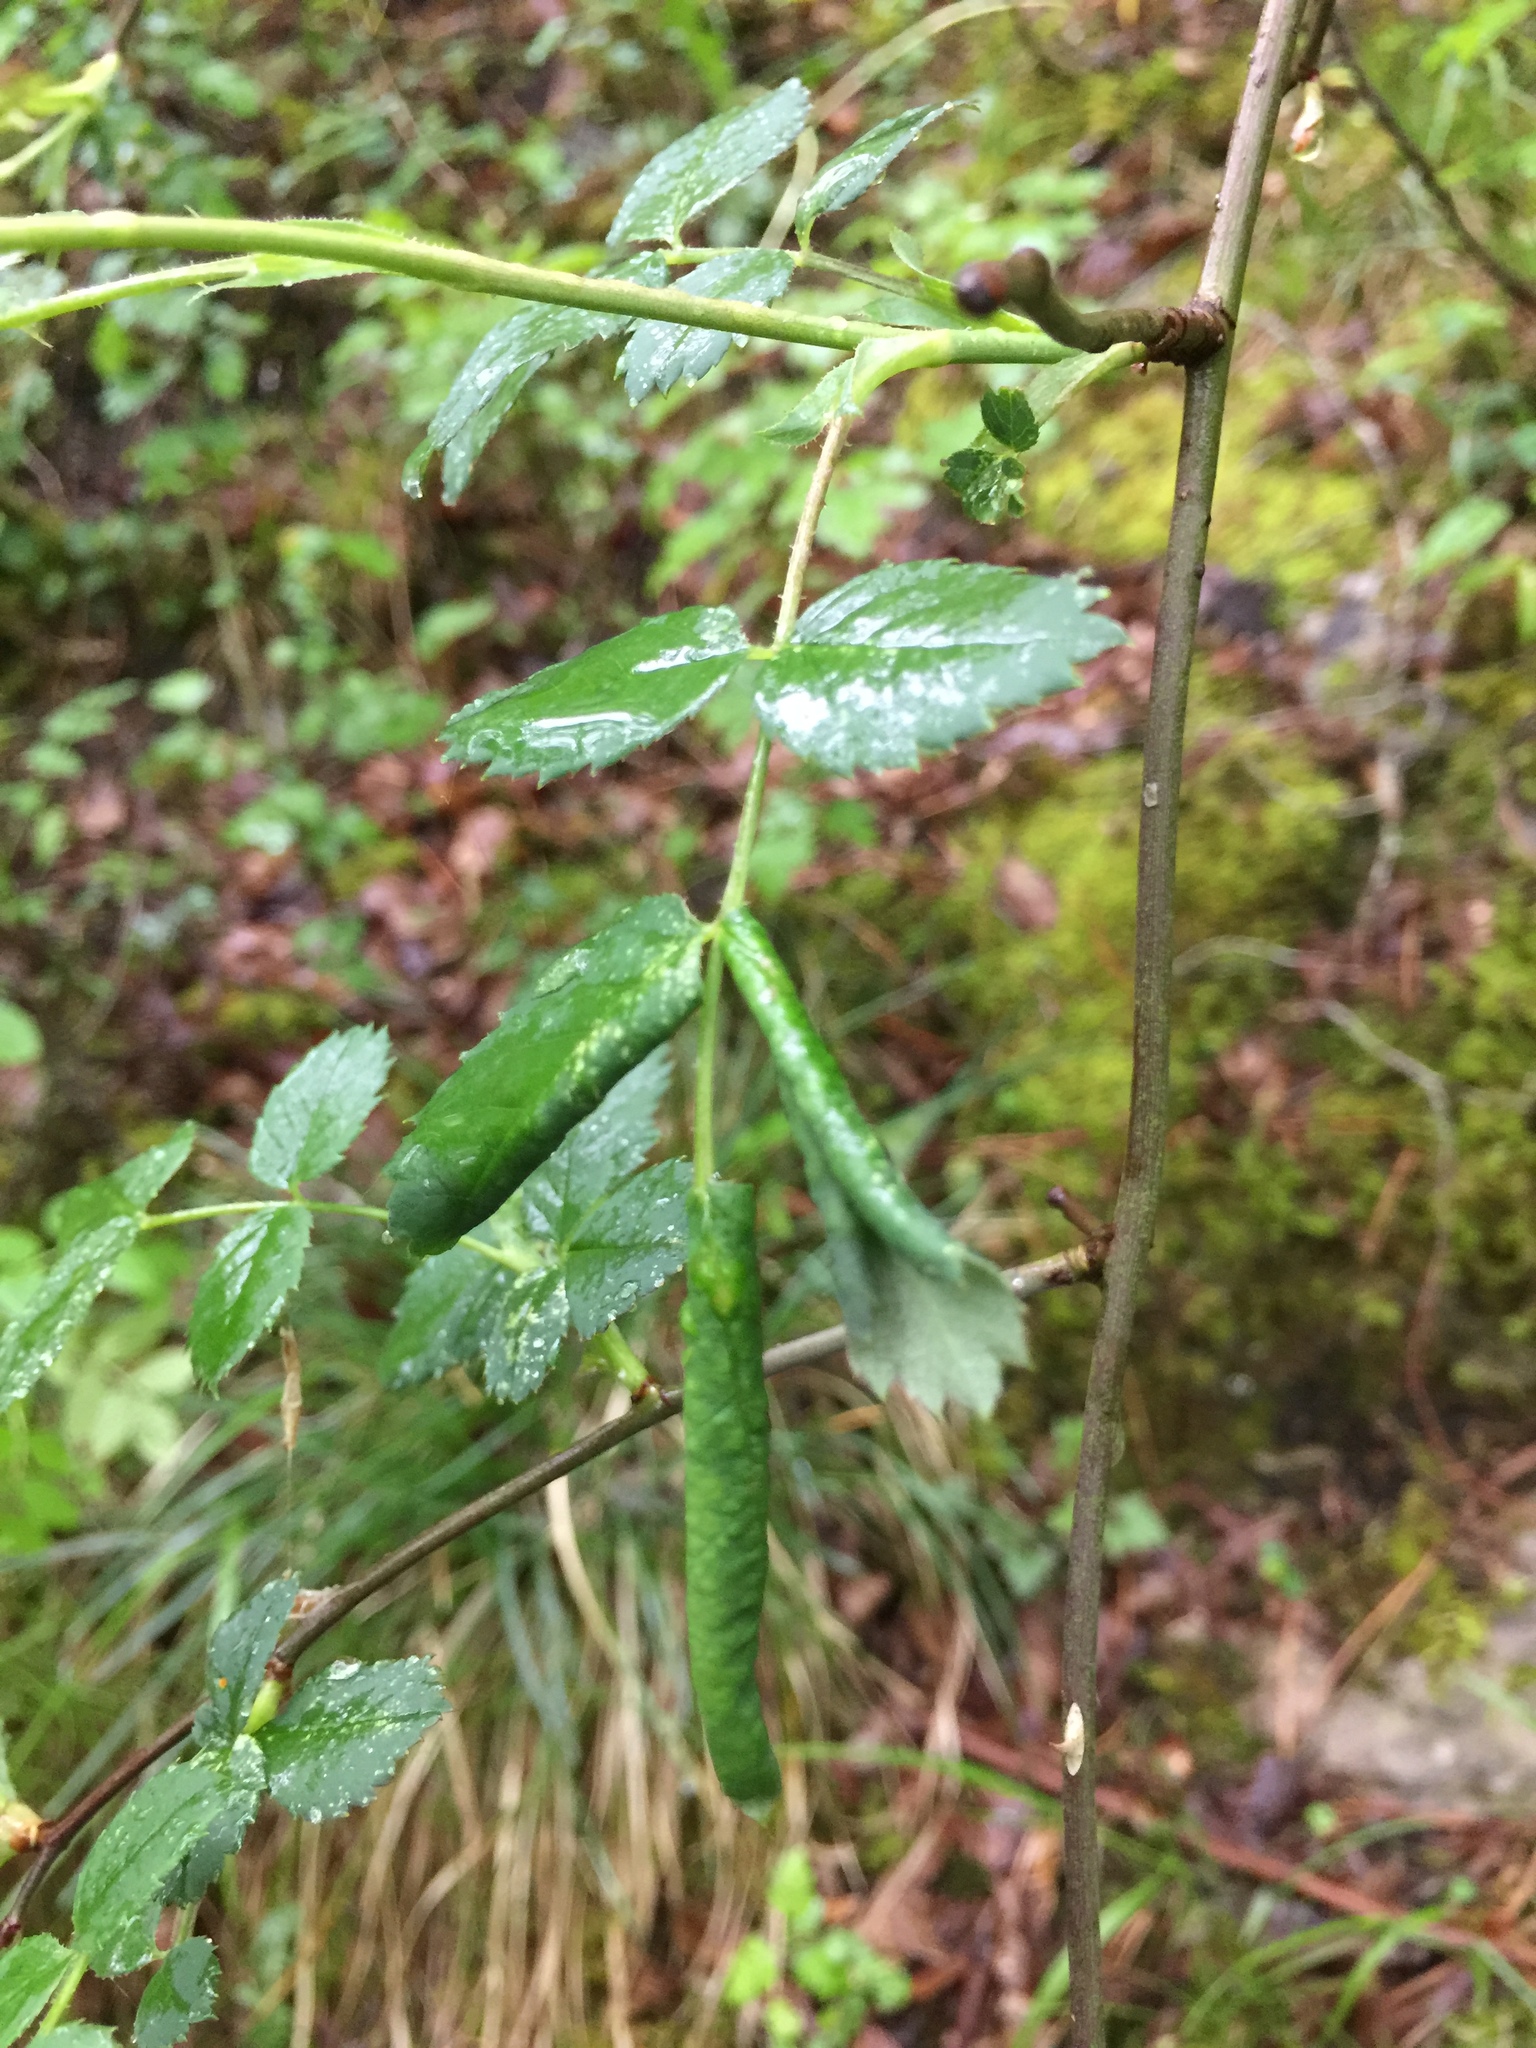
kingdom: Animalia
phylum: Arthropoda
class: Insecta
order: Hymenoptera
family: Tenthredinidae
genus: Blennocampa
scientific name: Blennocampa phyllocolpa
